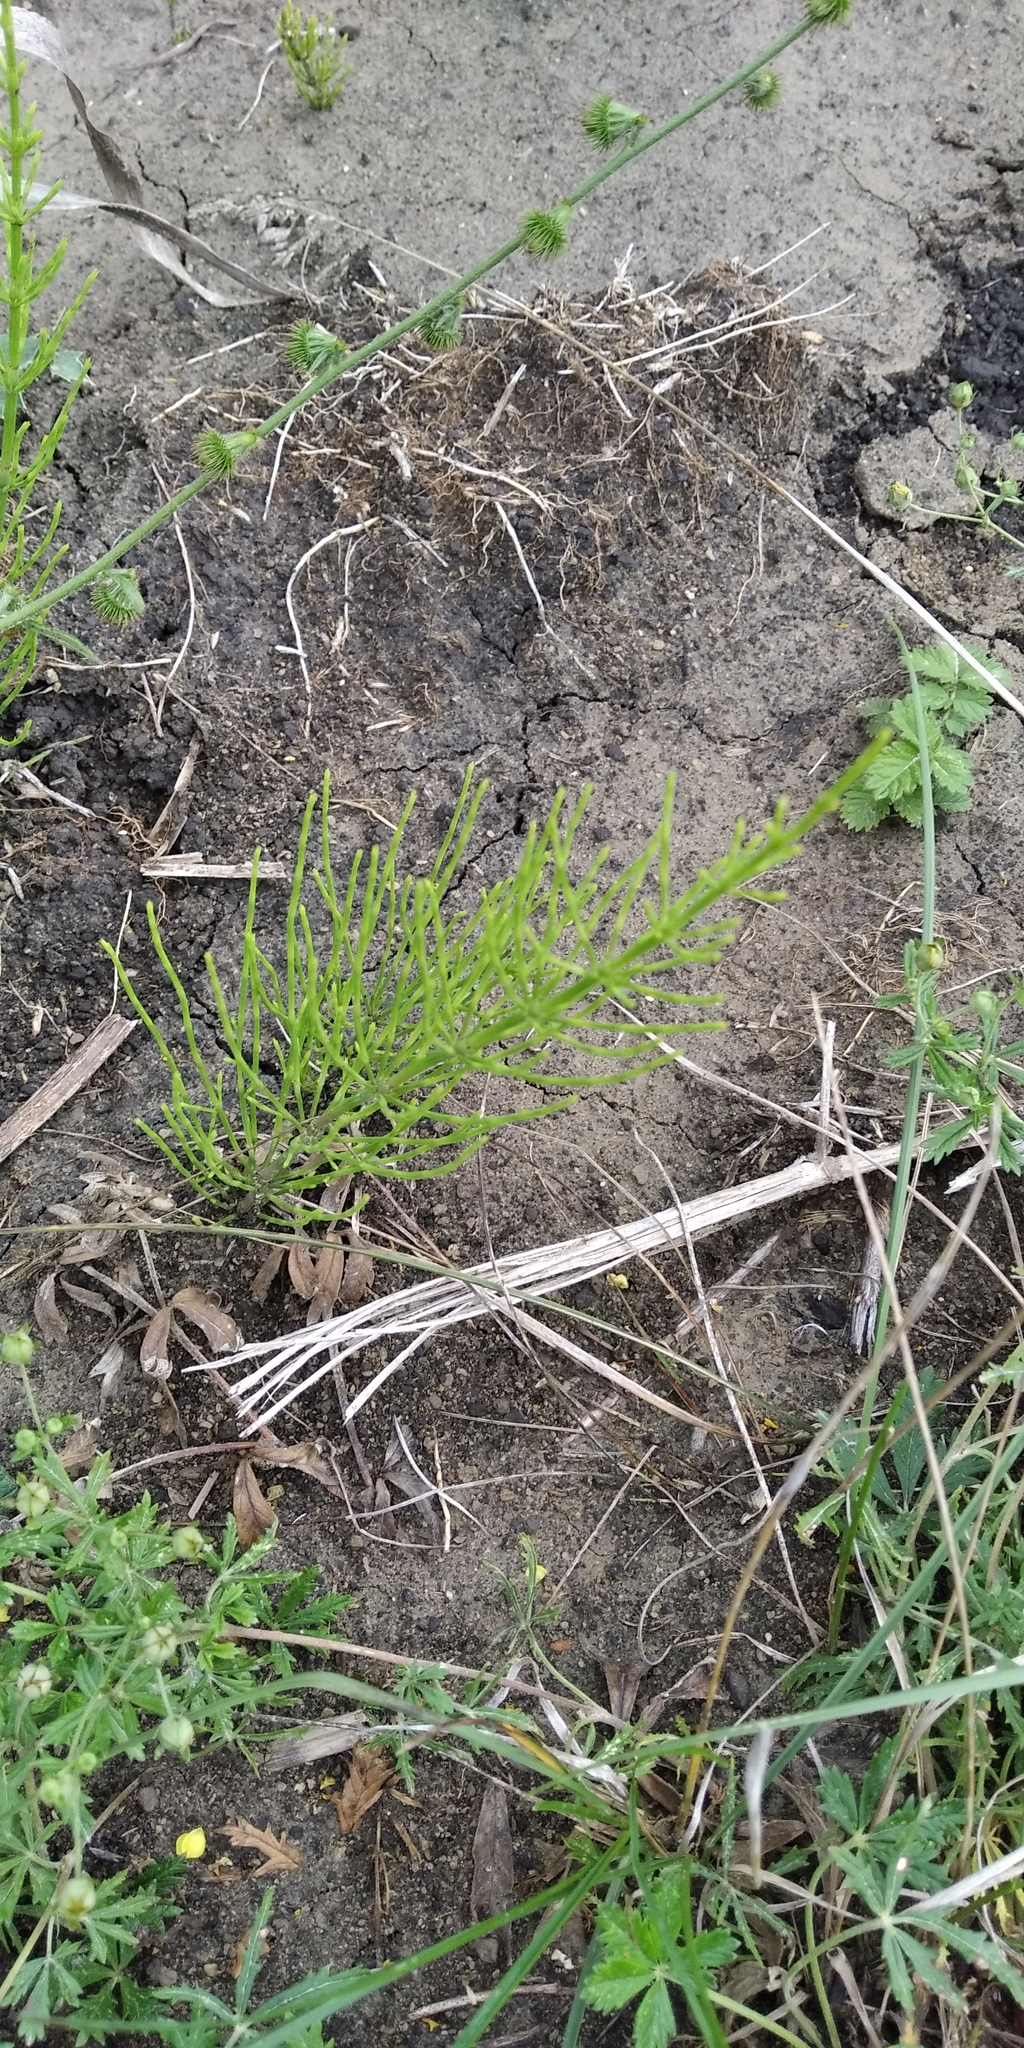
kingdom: Plantae
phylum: Tracheophyta
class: Polypodiopsida
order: Equisetales
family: Equisetaceae
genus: Equisetum
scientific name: Equisetum arvense
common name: Field horsetail
